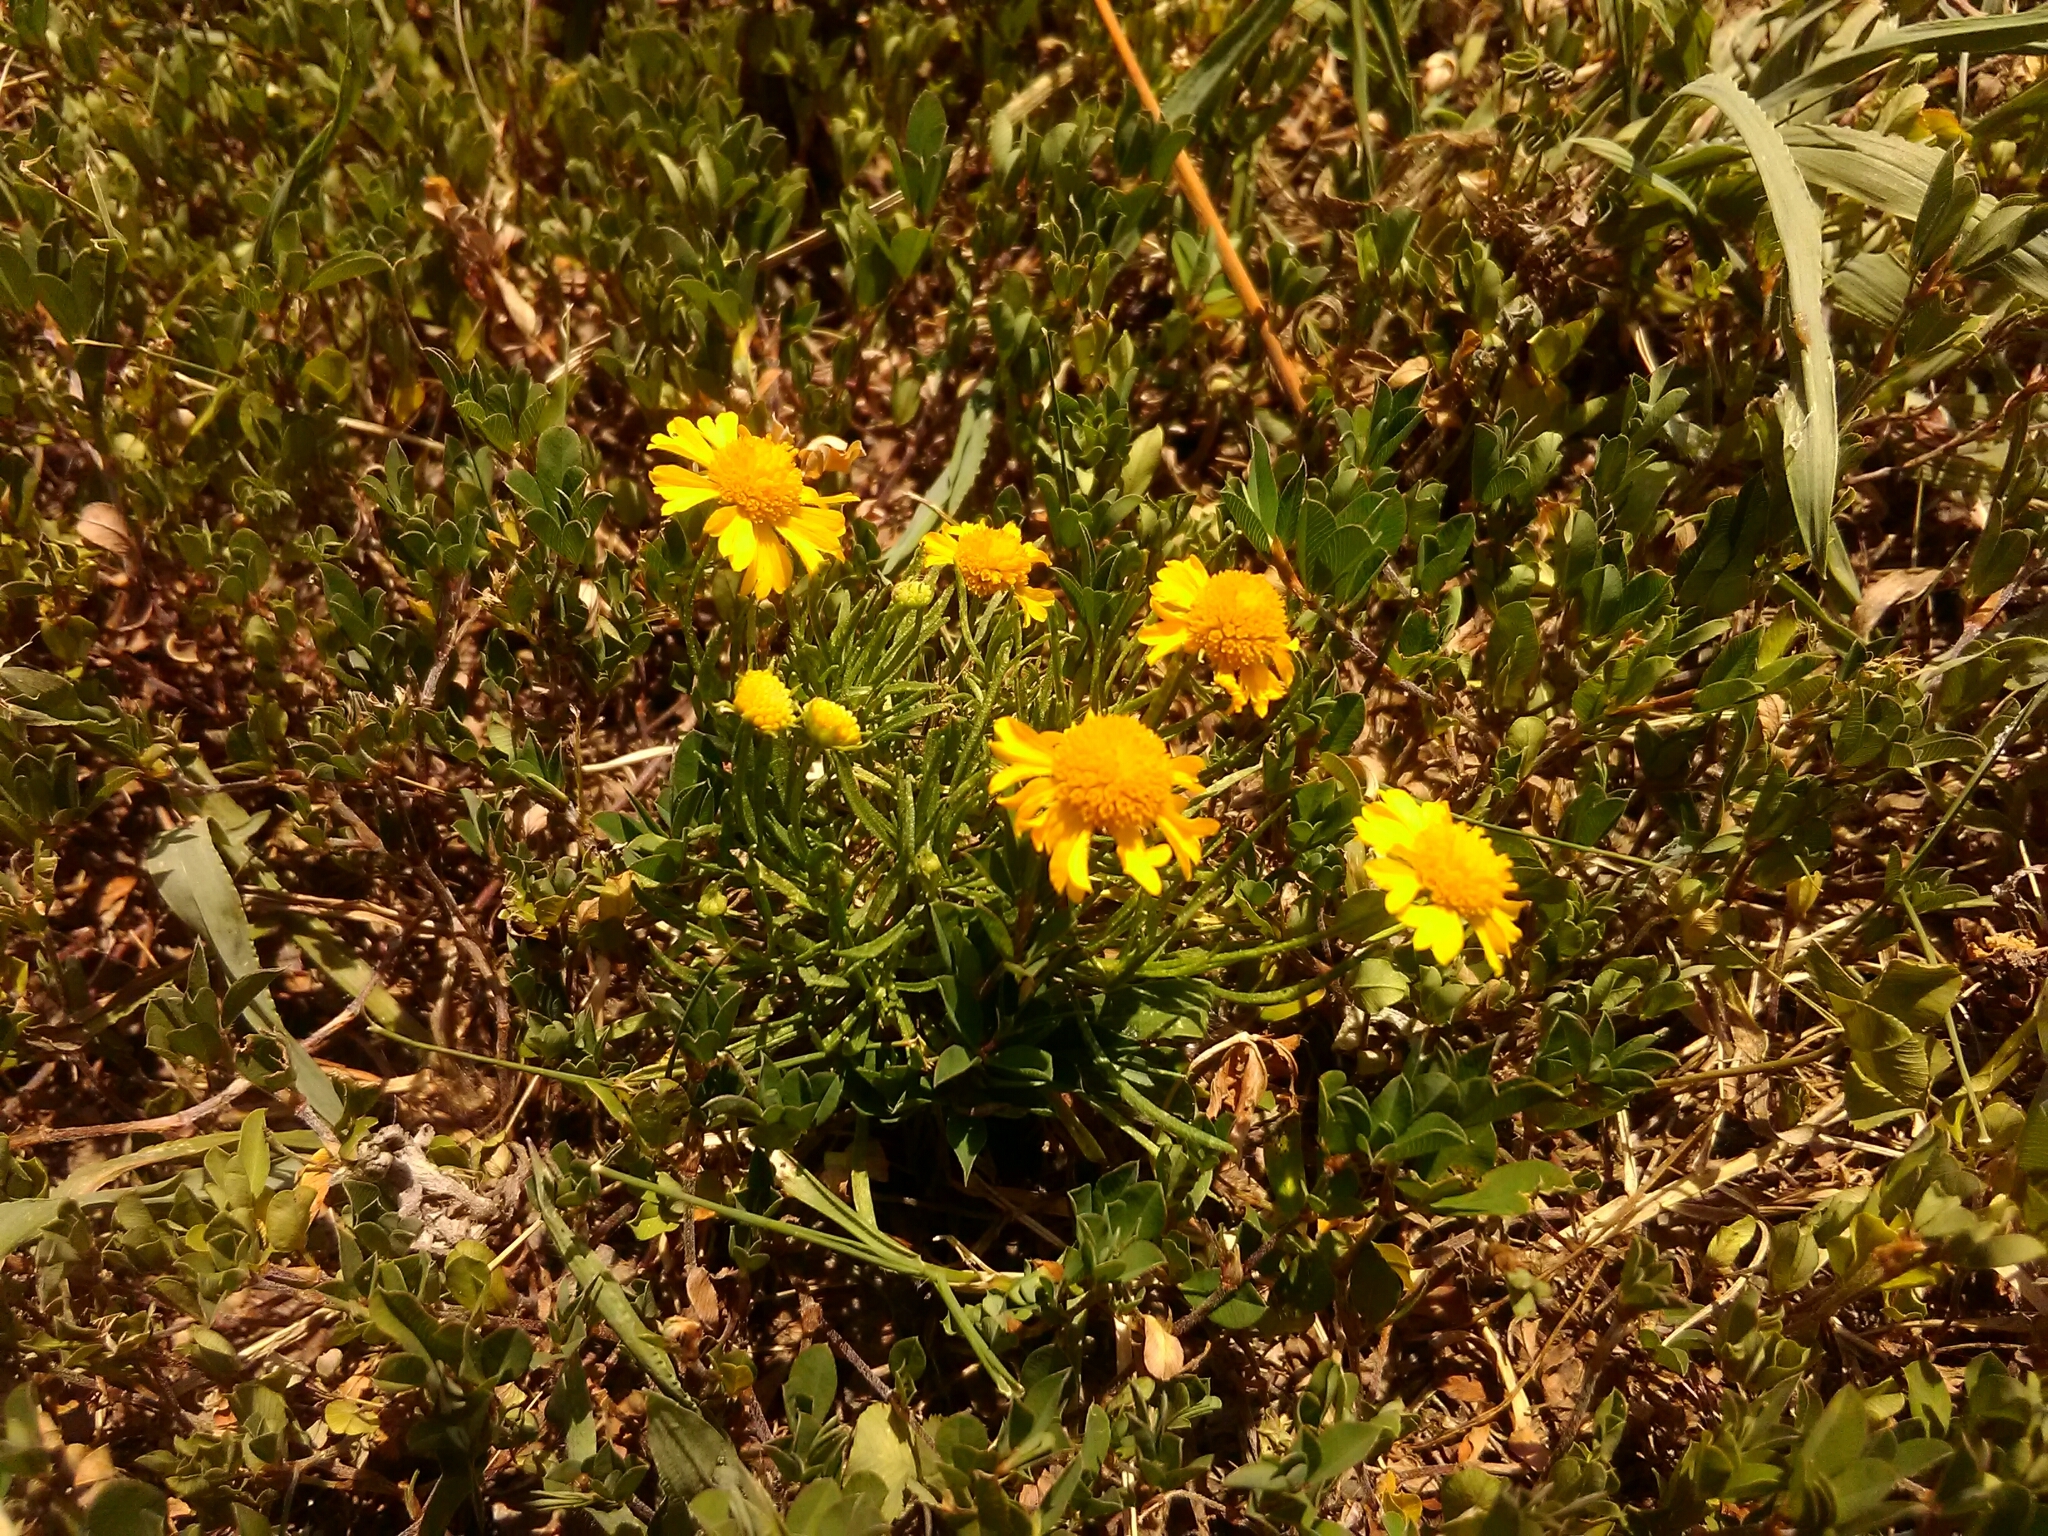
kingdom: Plantae
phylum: Tracheophyta
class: Magnoliopsida
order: Asterales
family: Asteraceae
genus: Helenium
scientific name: Helenium amarum
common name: Bitter sneezeweed
